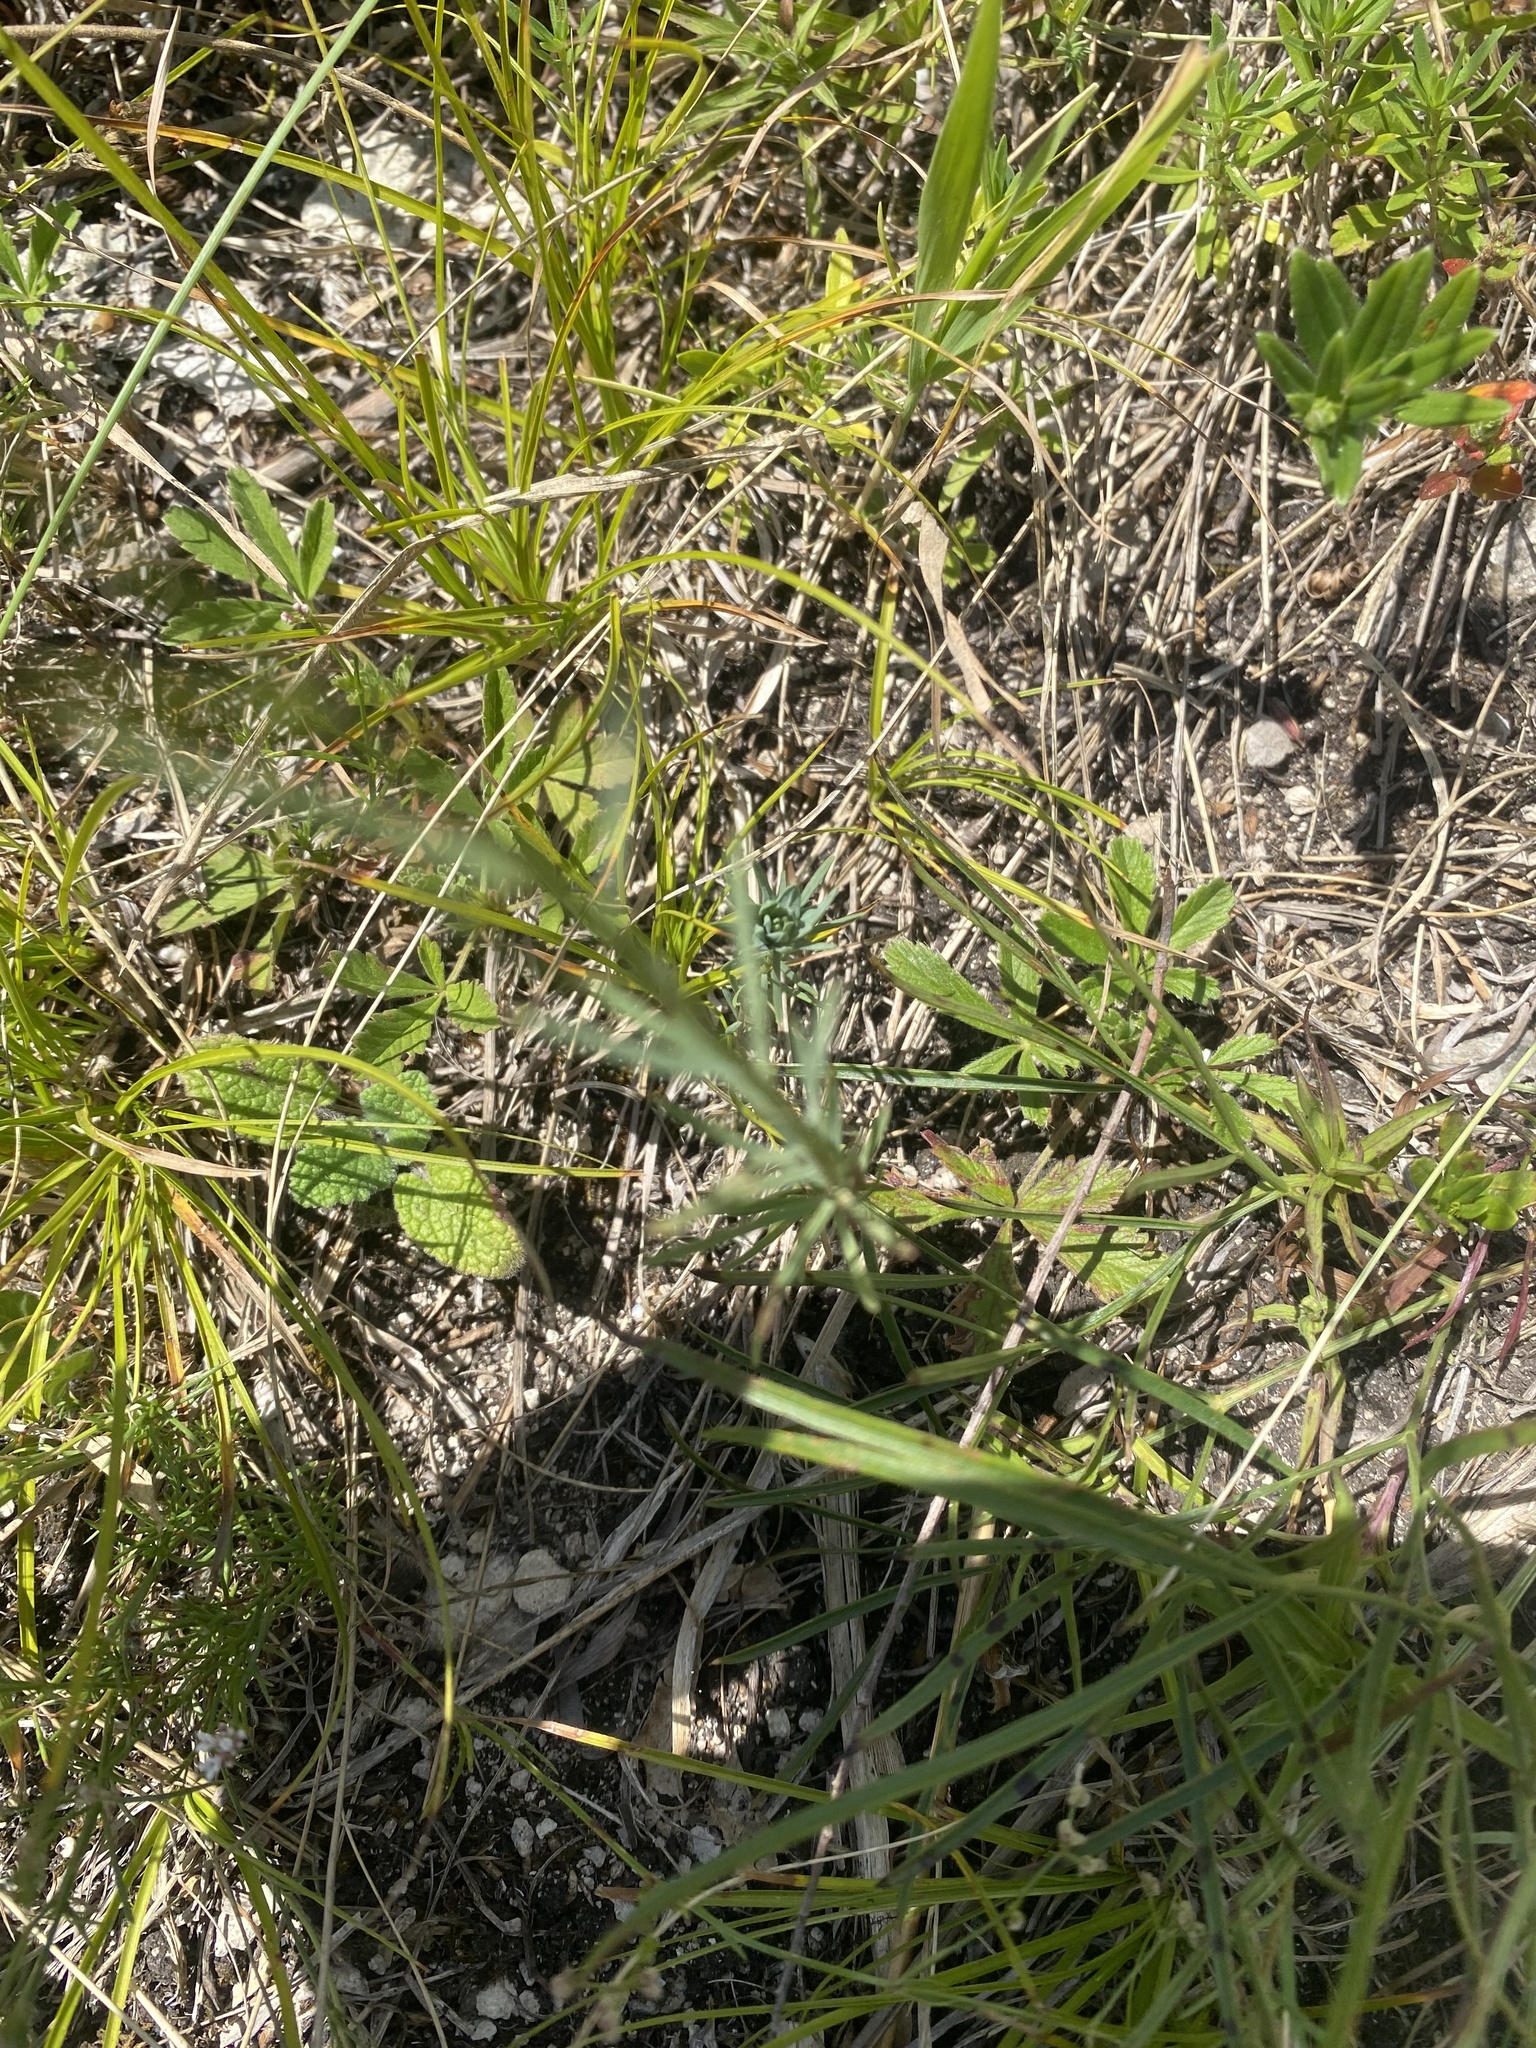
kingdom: Plantae
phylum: Tracheophyta
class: Magnoliopsida
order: Malpighiales
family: Linaceae
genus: Linum
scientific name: Linum tenuifolium
